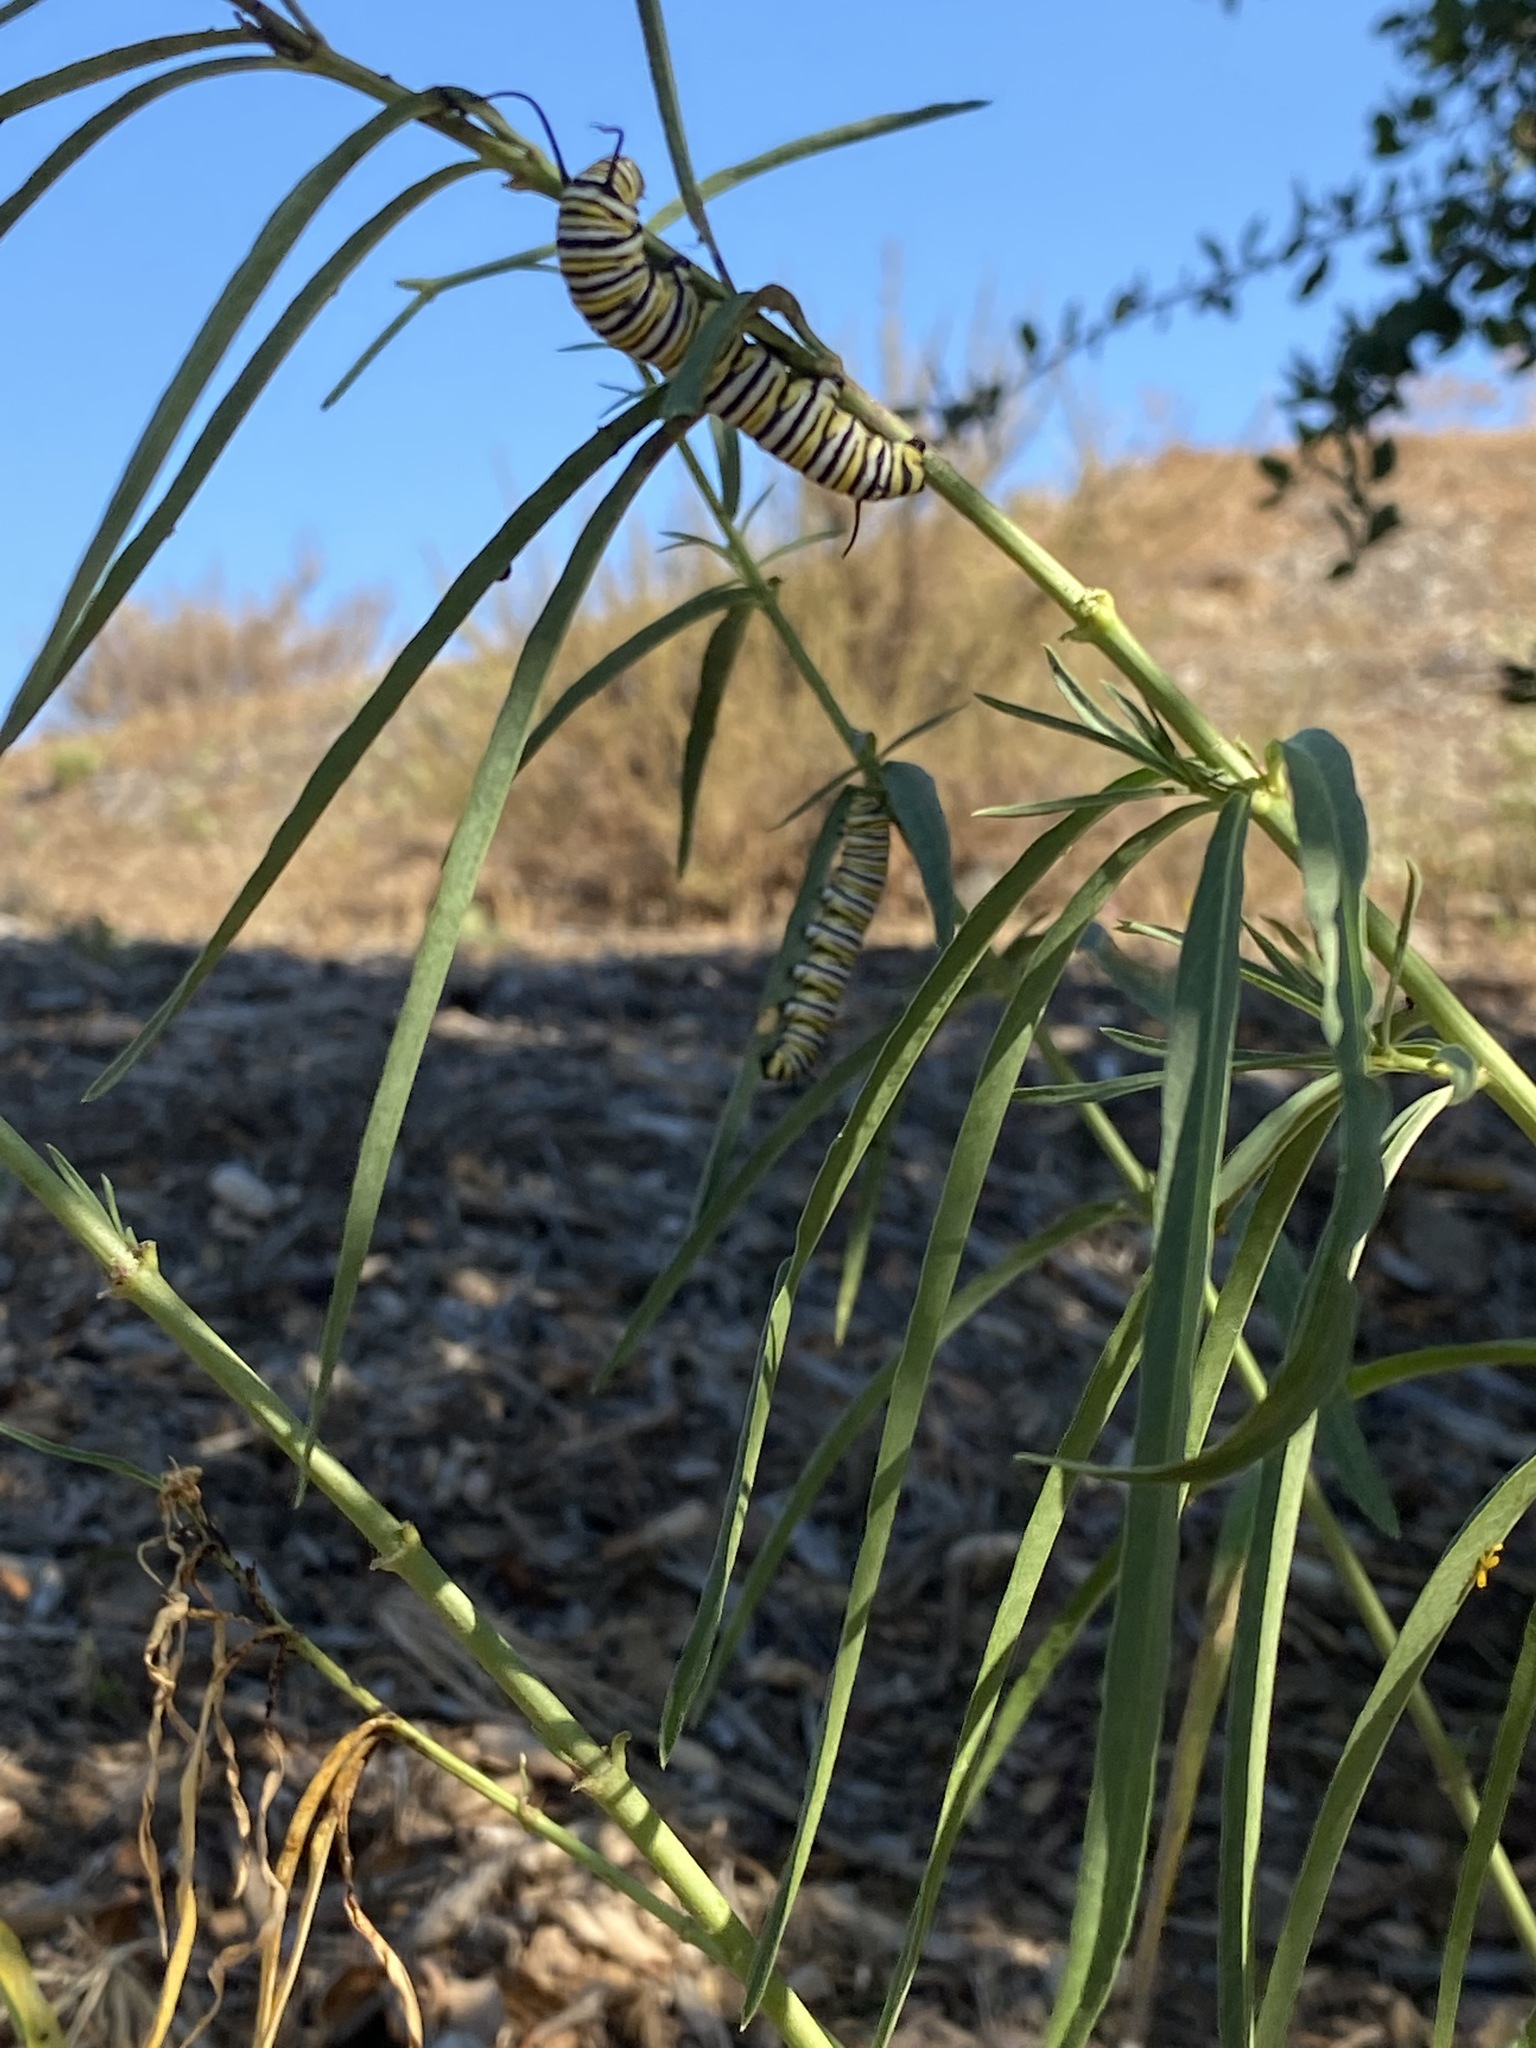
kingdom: Animalia
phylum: Arthropoda
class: Insecta
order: Lepidoptera
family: Nymphalidae
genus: Danaus
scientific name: Danaus plexippus
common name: Monarch
